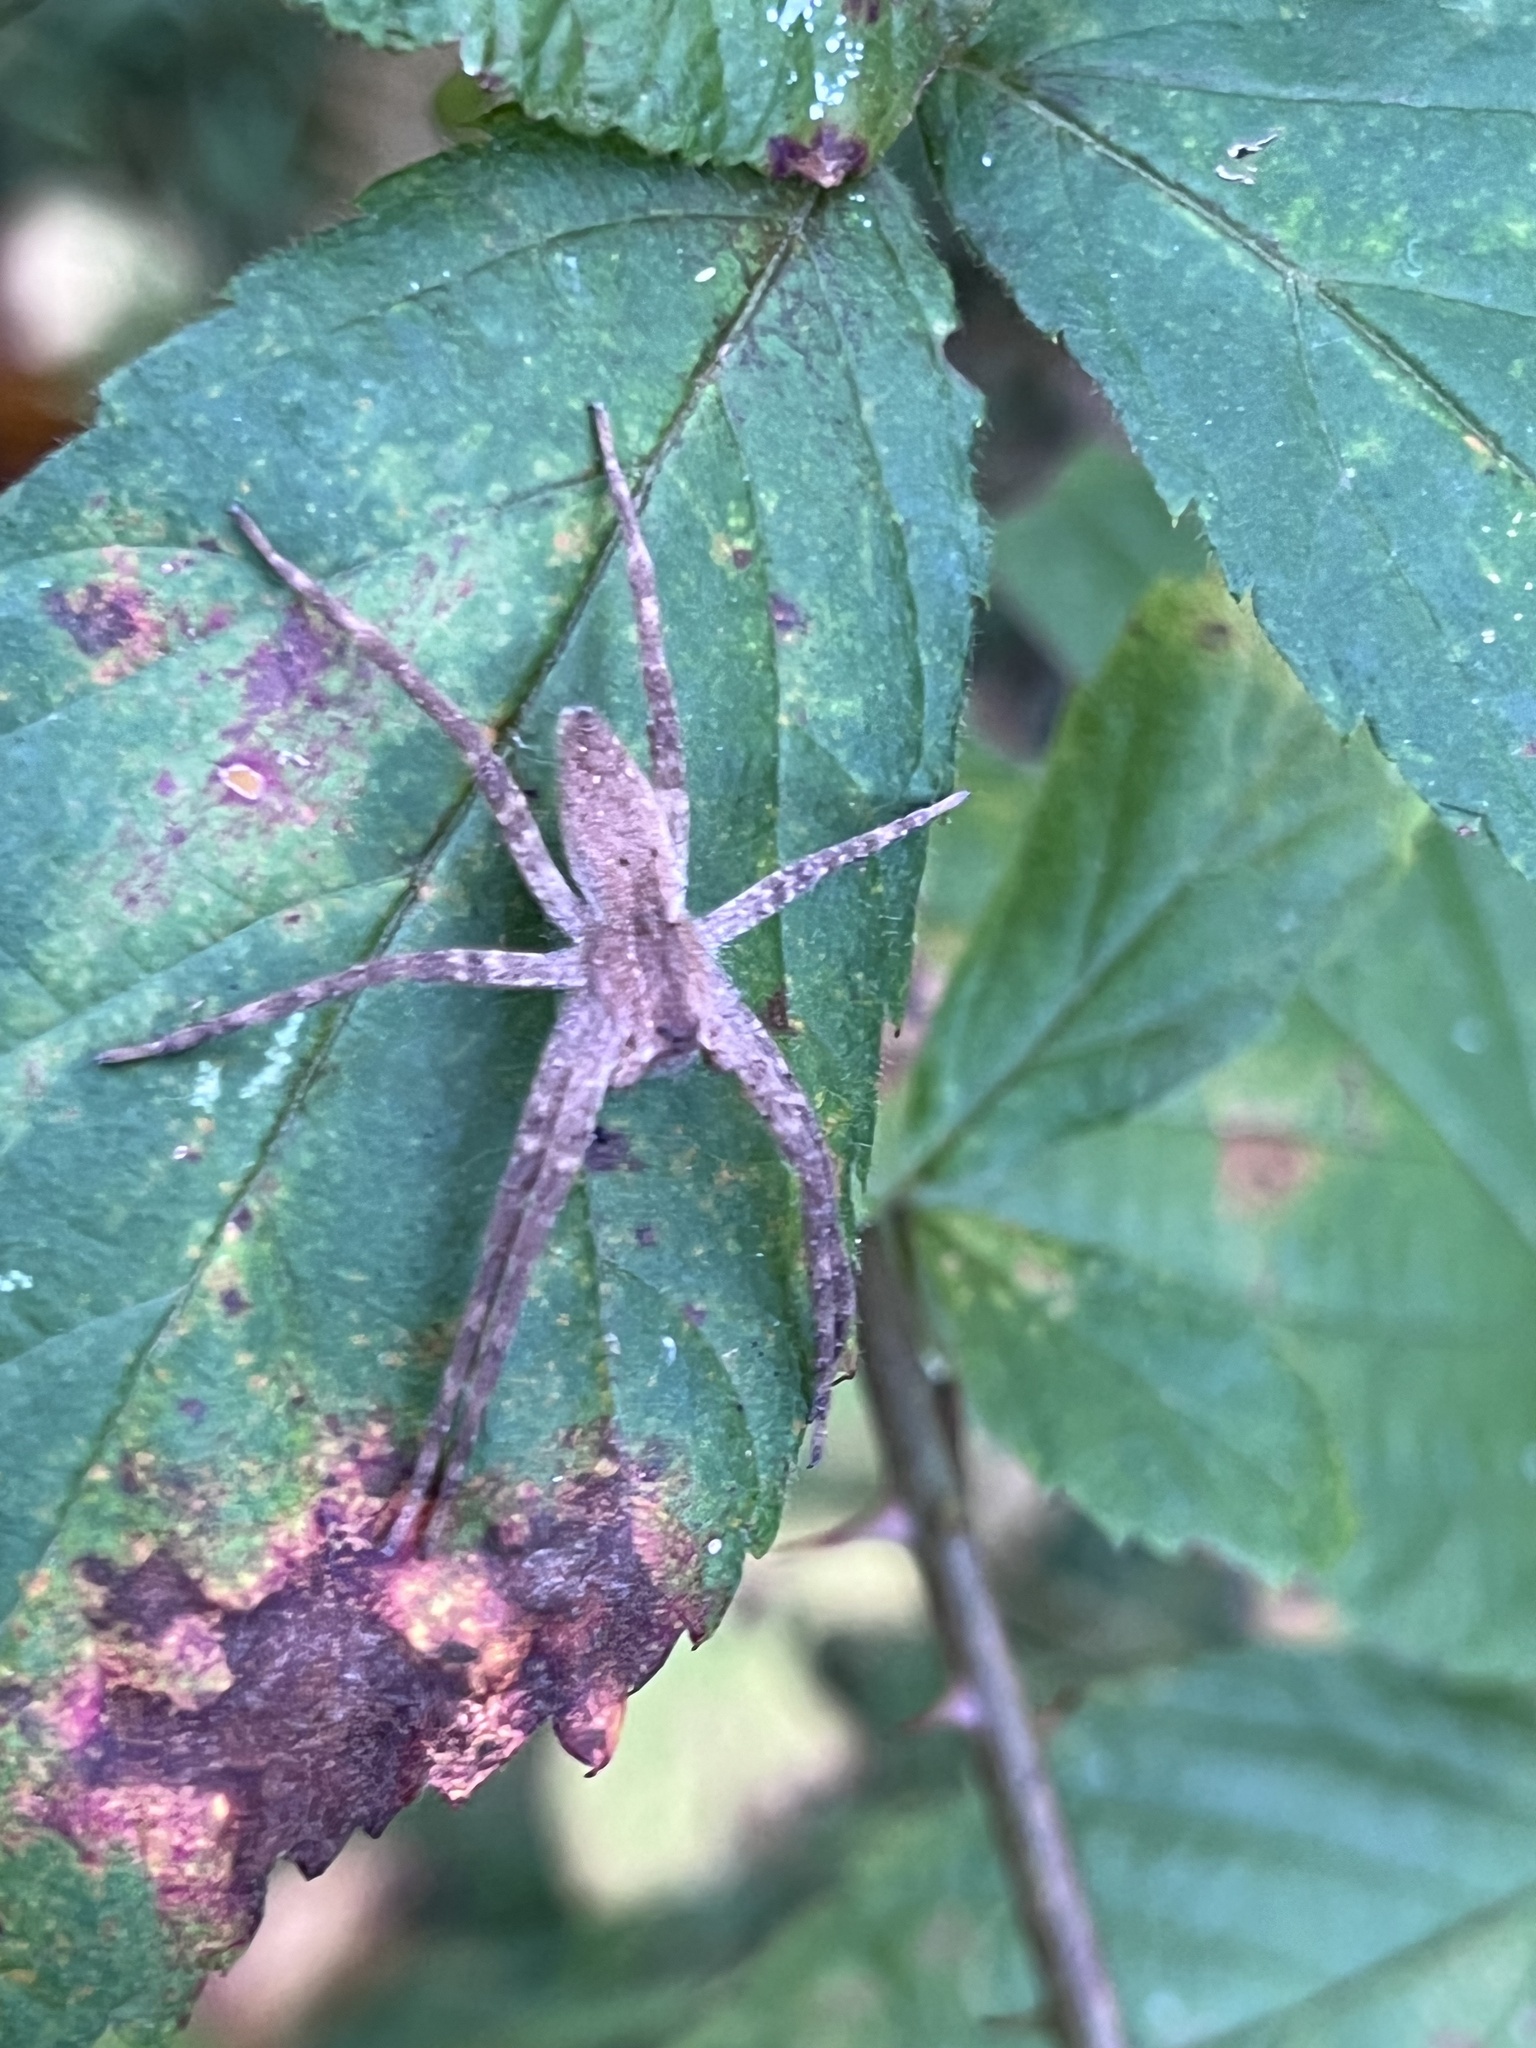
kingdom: Animalia
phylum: Arthropoda
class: Arachnida
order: Araneae
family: Pisauridae
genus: Pisaurina
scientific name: Pisaurina mira
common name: American nursery web spider
